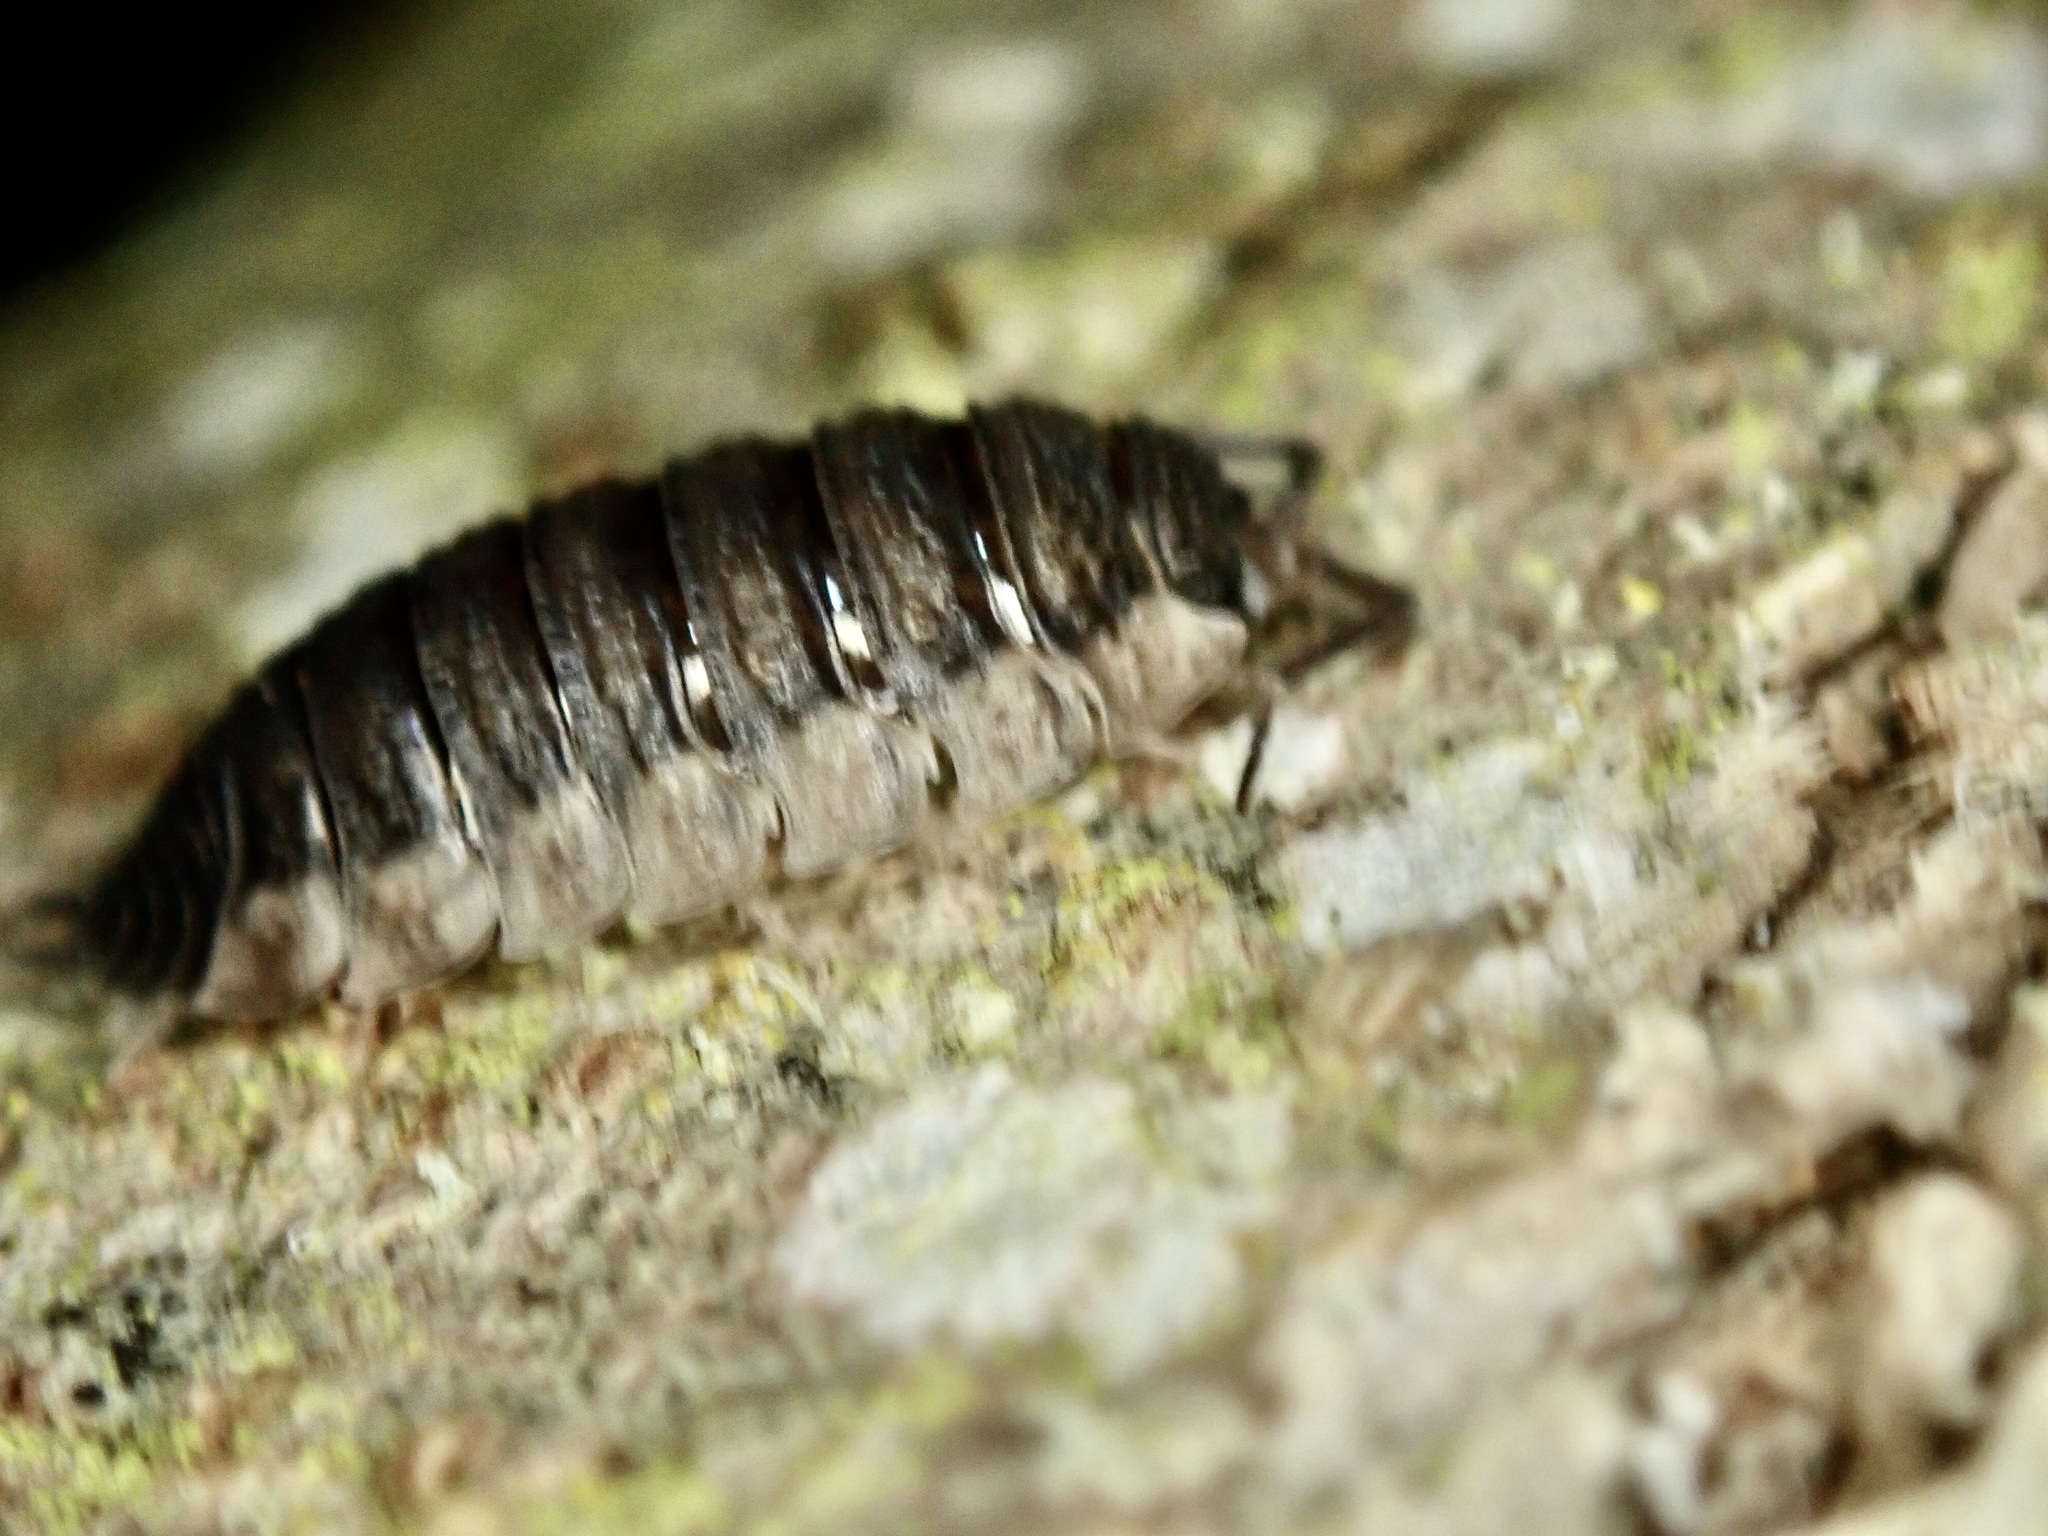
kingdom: Animalia
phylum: Arthropoda
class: Malacostraca
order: Isopoda
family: Porcellionidae
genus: Porcellio
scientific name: Porcellio scaber
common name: Common rough woodlouse
